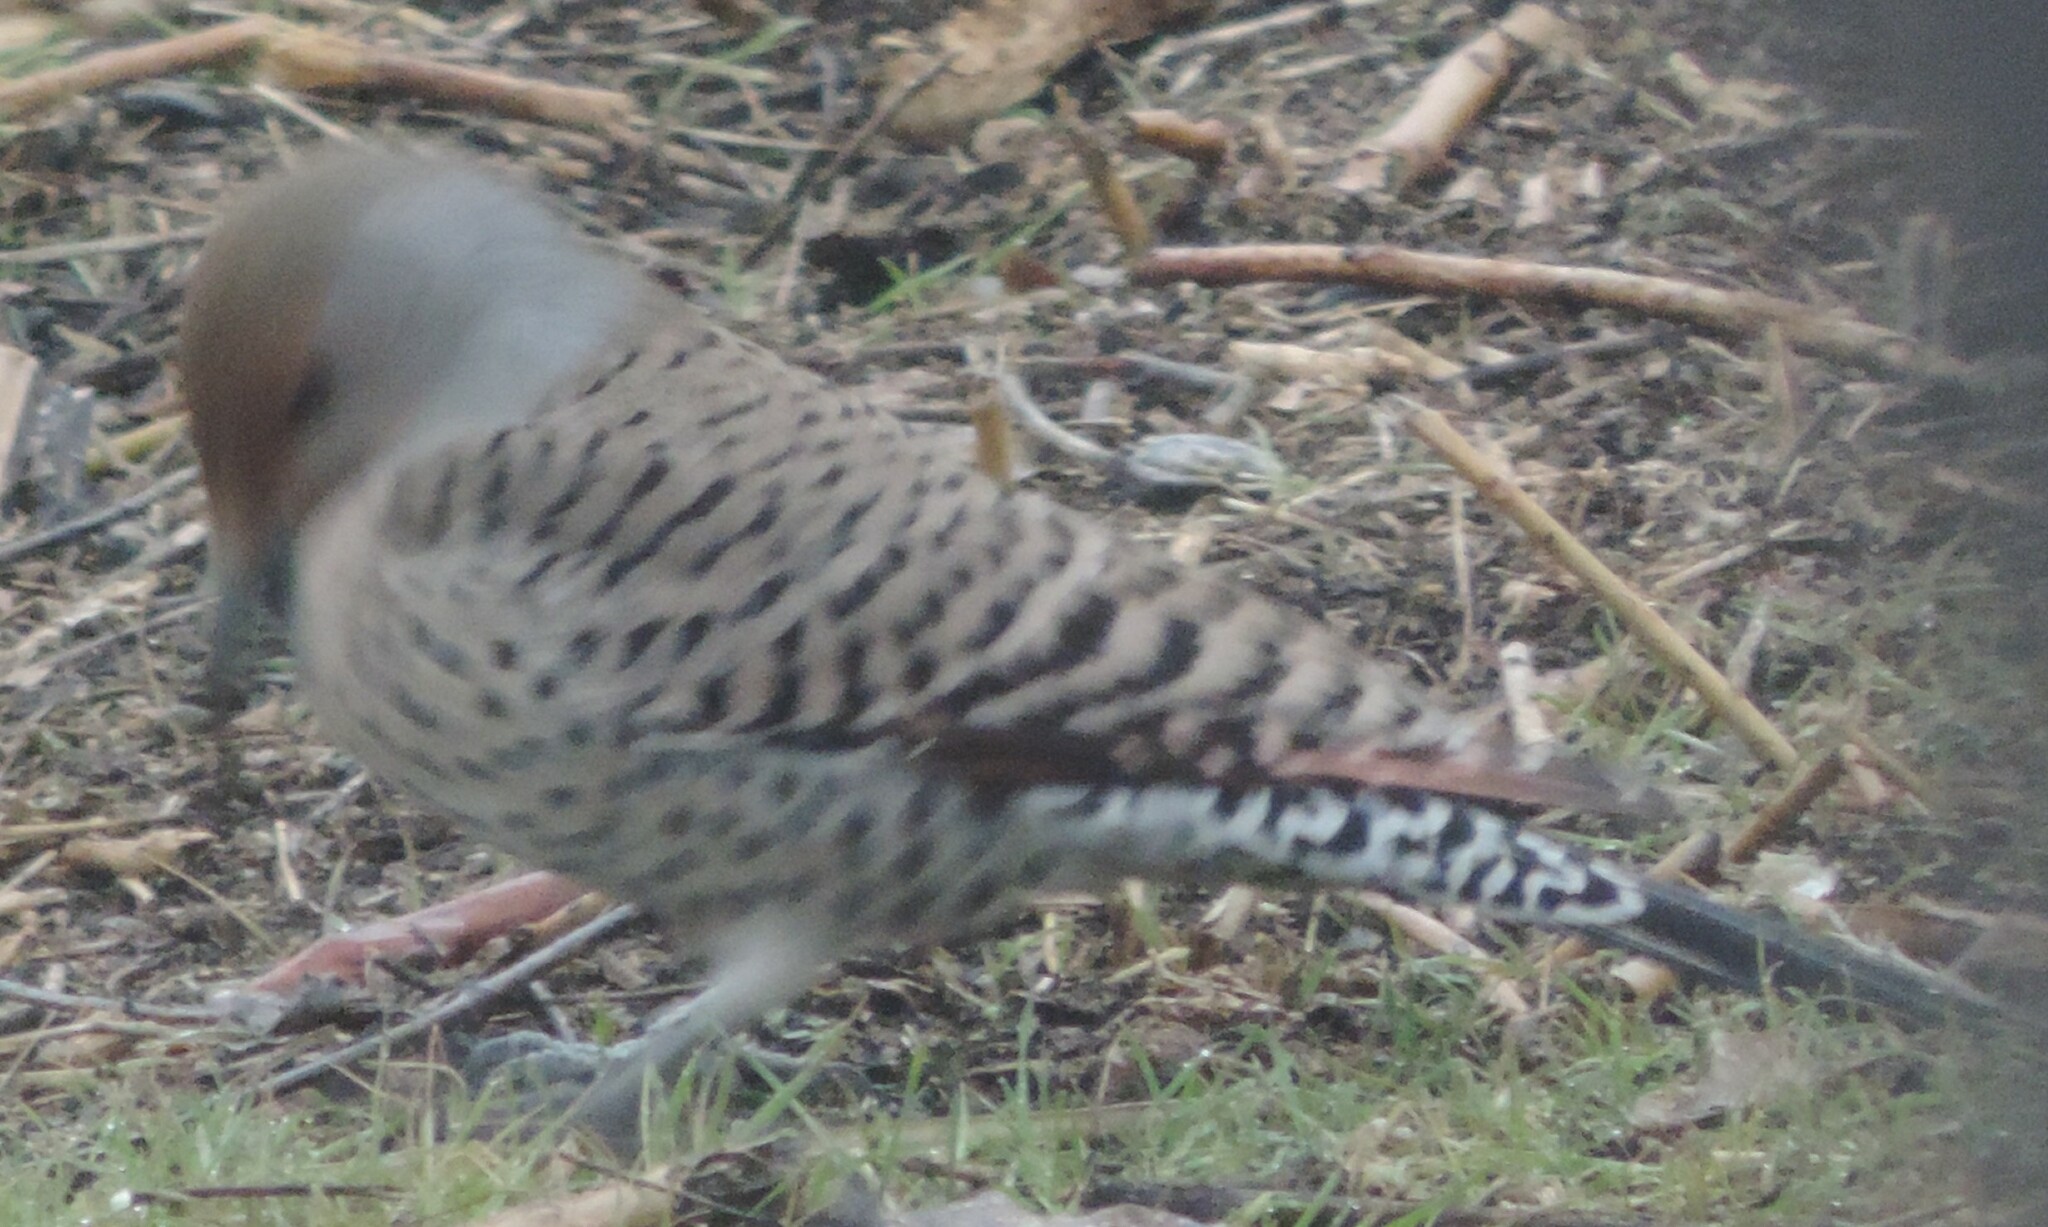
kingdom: Animalia
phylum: Chordata
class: Aves
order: Piciformes
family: Picidae
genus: Colaptes
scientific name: Colaptes auratus
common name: Northern flicker
